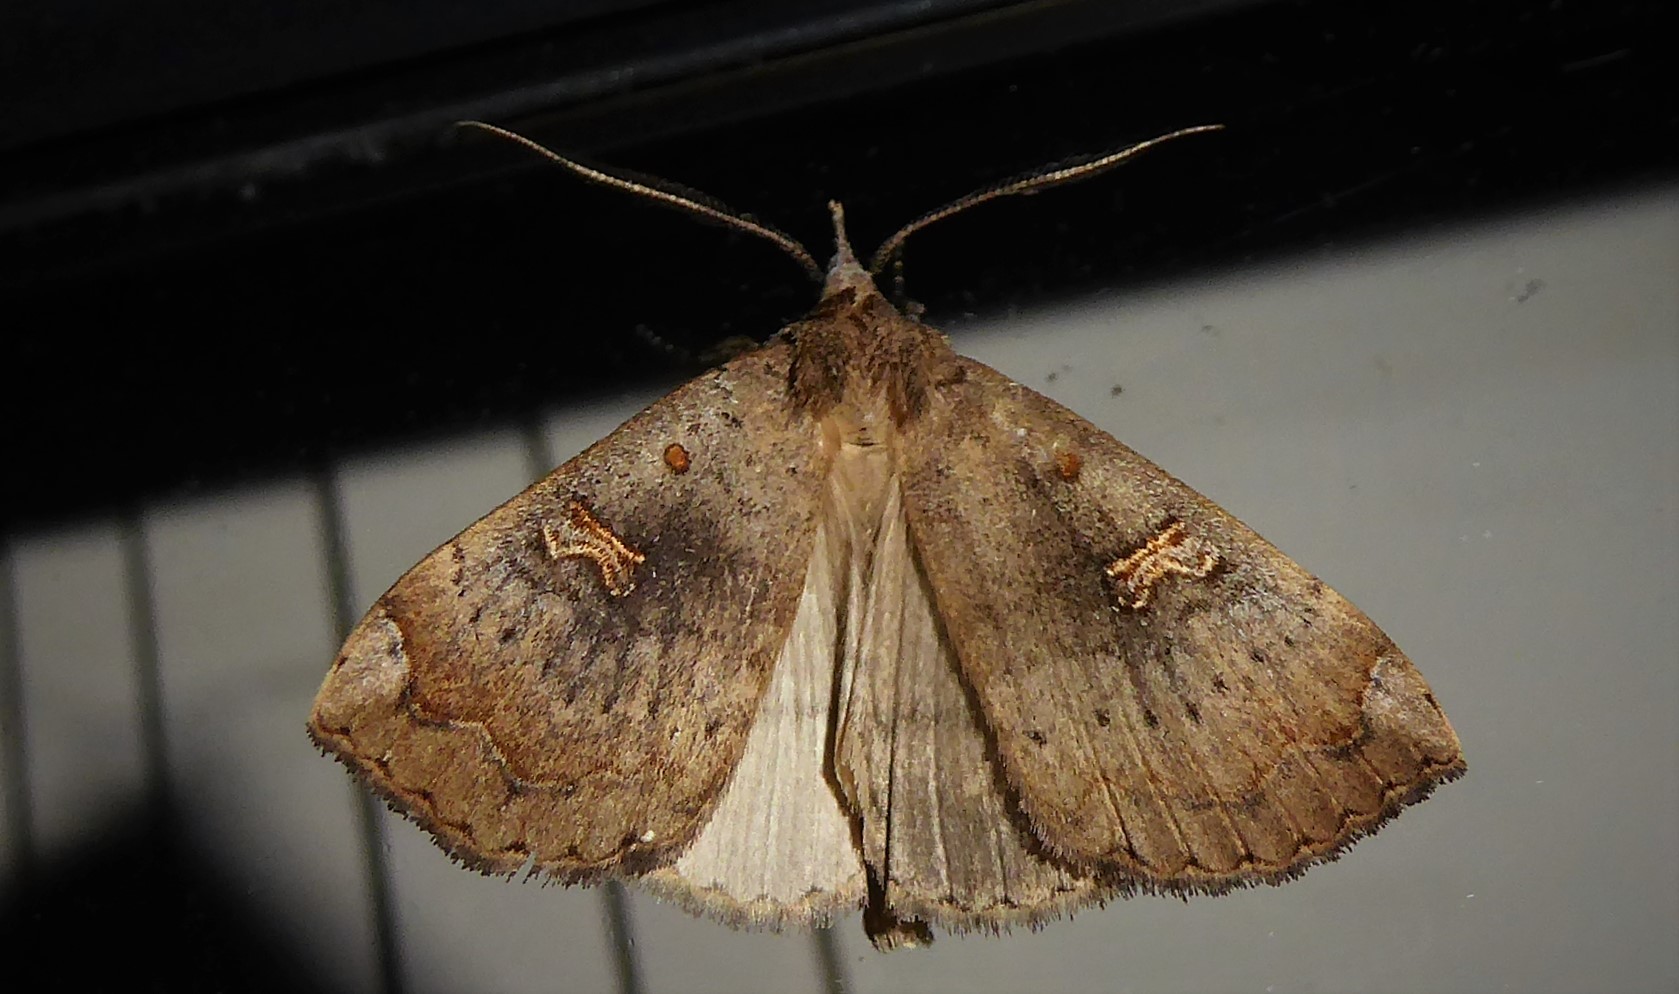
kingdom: Animalia
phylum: Arthropoda
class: Insecta
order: Lepidoptera
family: Erebidae
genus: Rhapsa
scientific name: Rhapsa scotosialis
